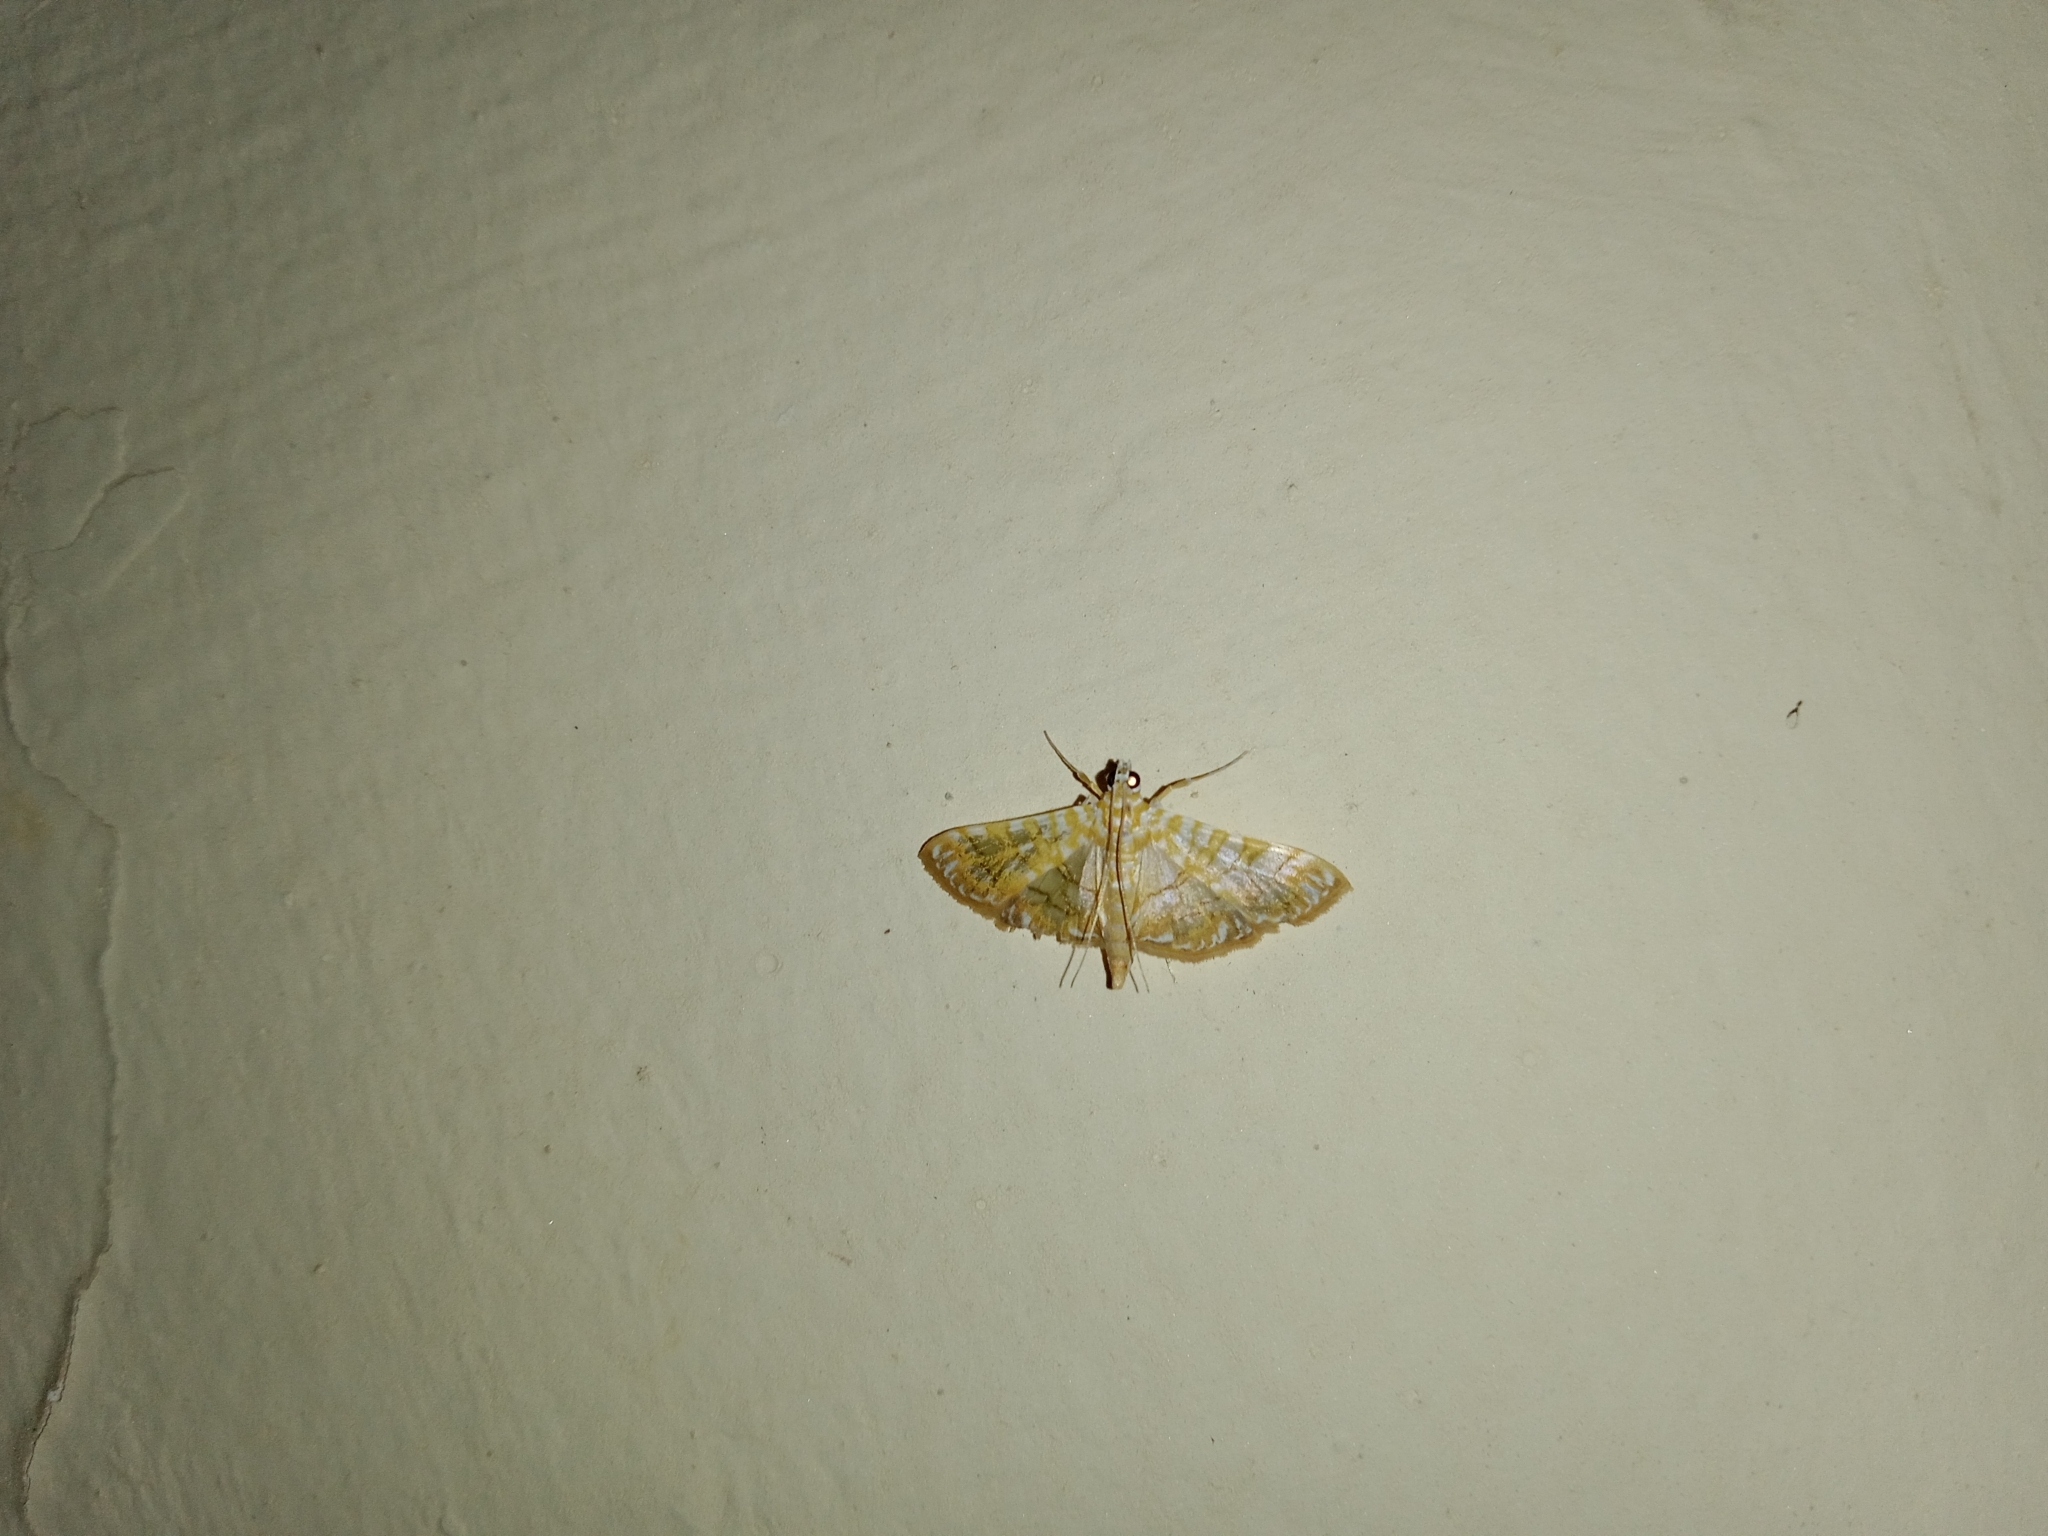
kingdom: Animalia
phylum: Arthropoda
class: Insecta
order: Lepidoptera
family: Crambidae
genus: Synclera
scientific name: Synclera traducalis
